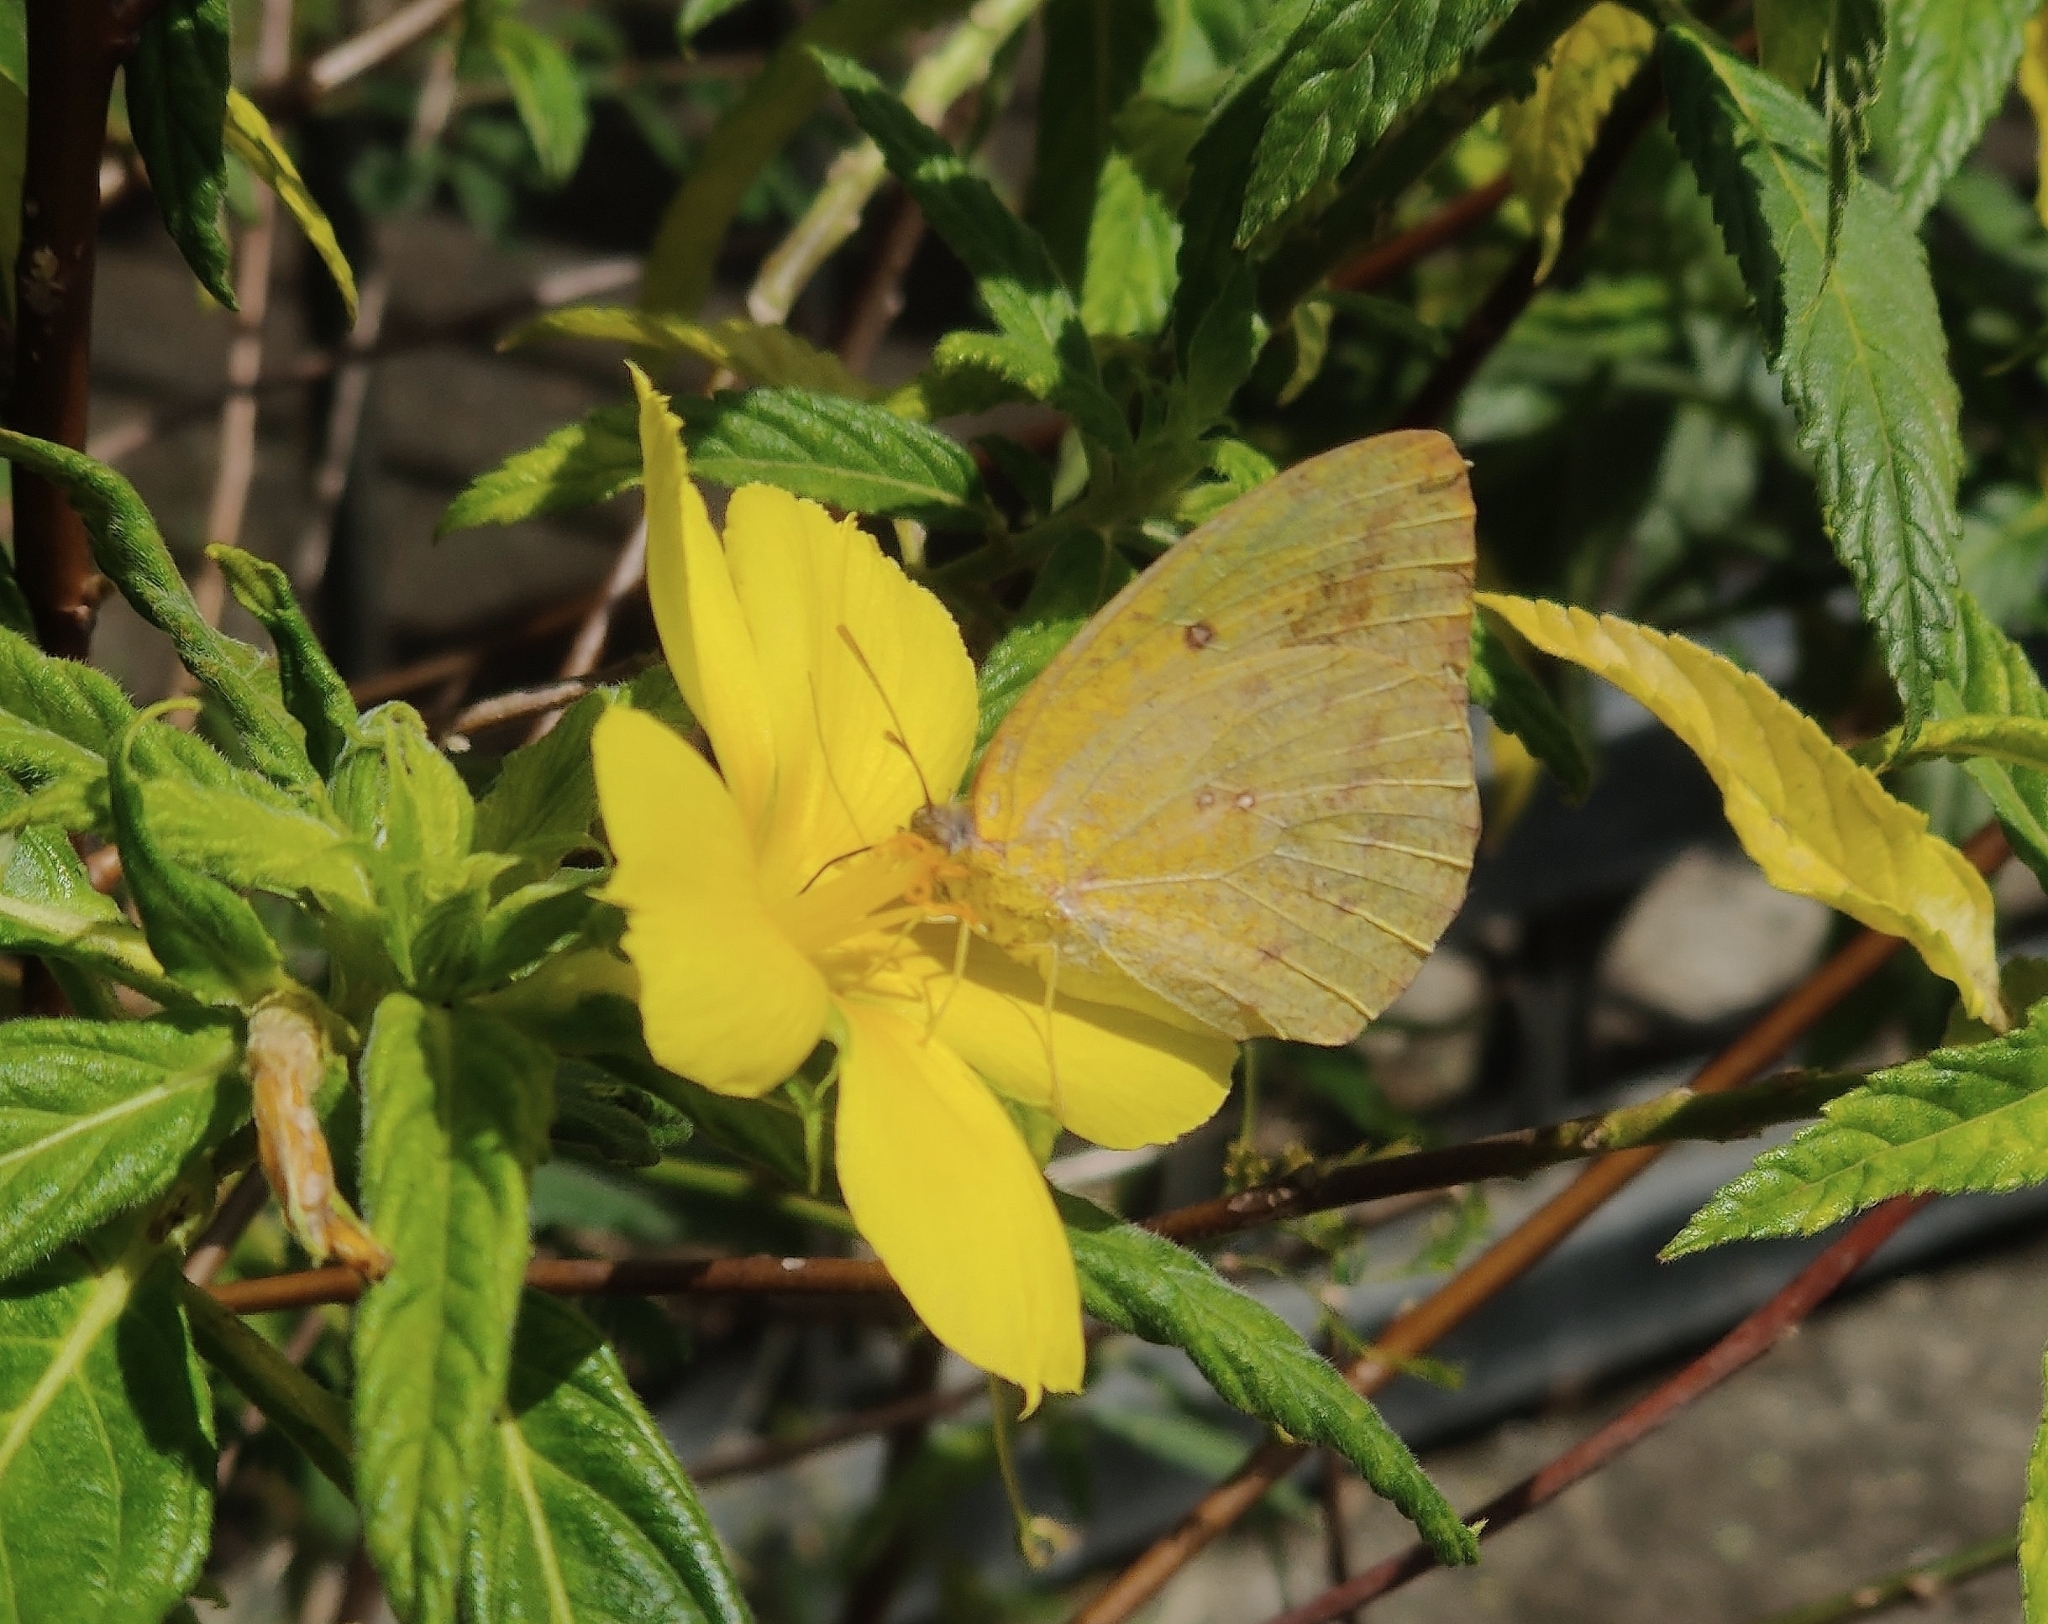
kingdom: Animalia
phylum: Arthropoda
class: Insecta
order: Lepidoptera
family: Pieridae
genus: Catopsilia
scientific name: Catopsilia florella
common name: African migrant
